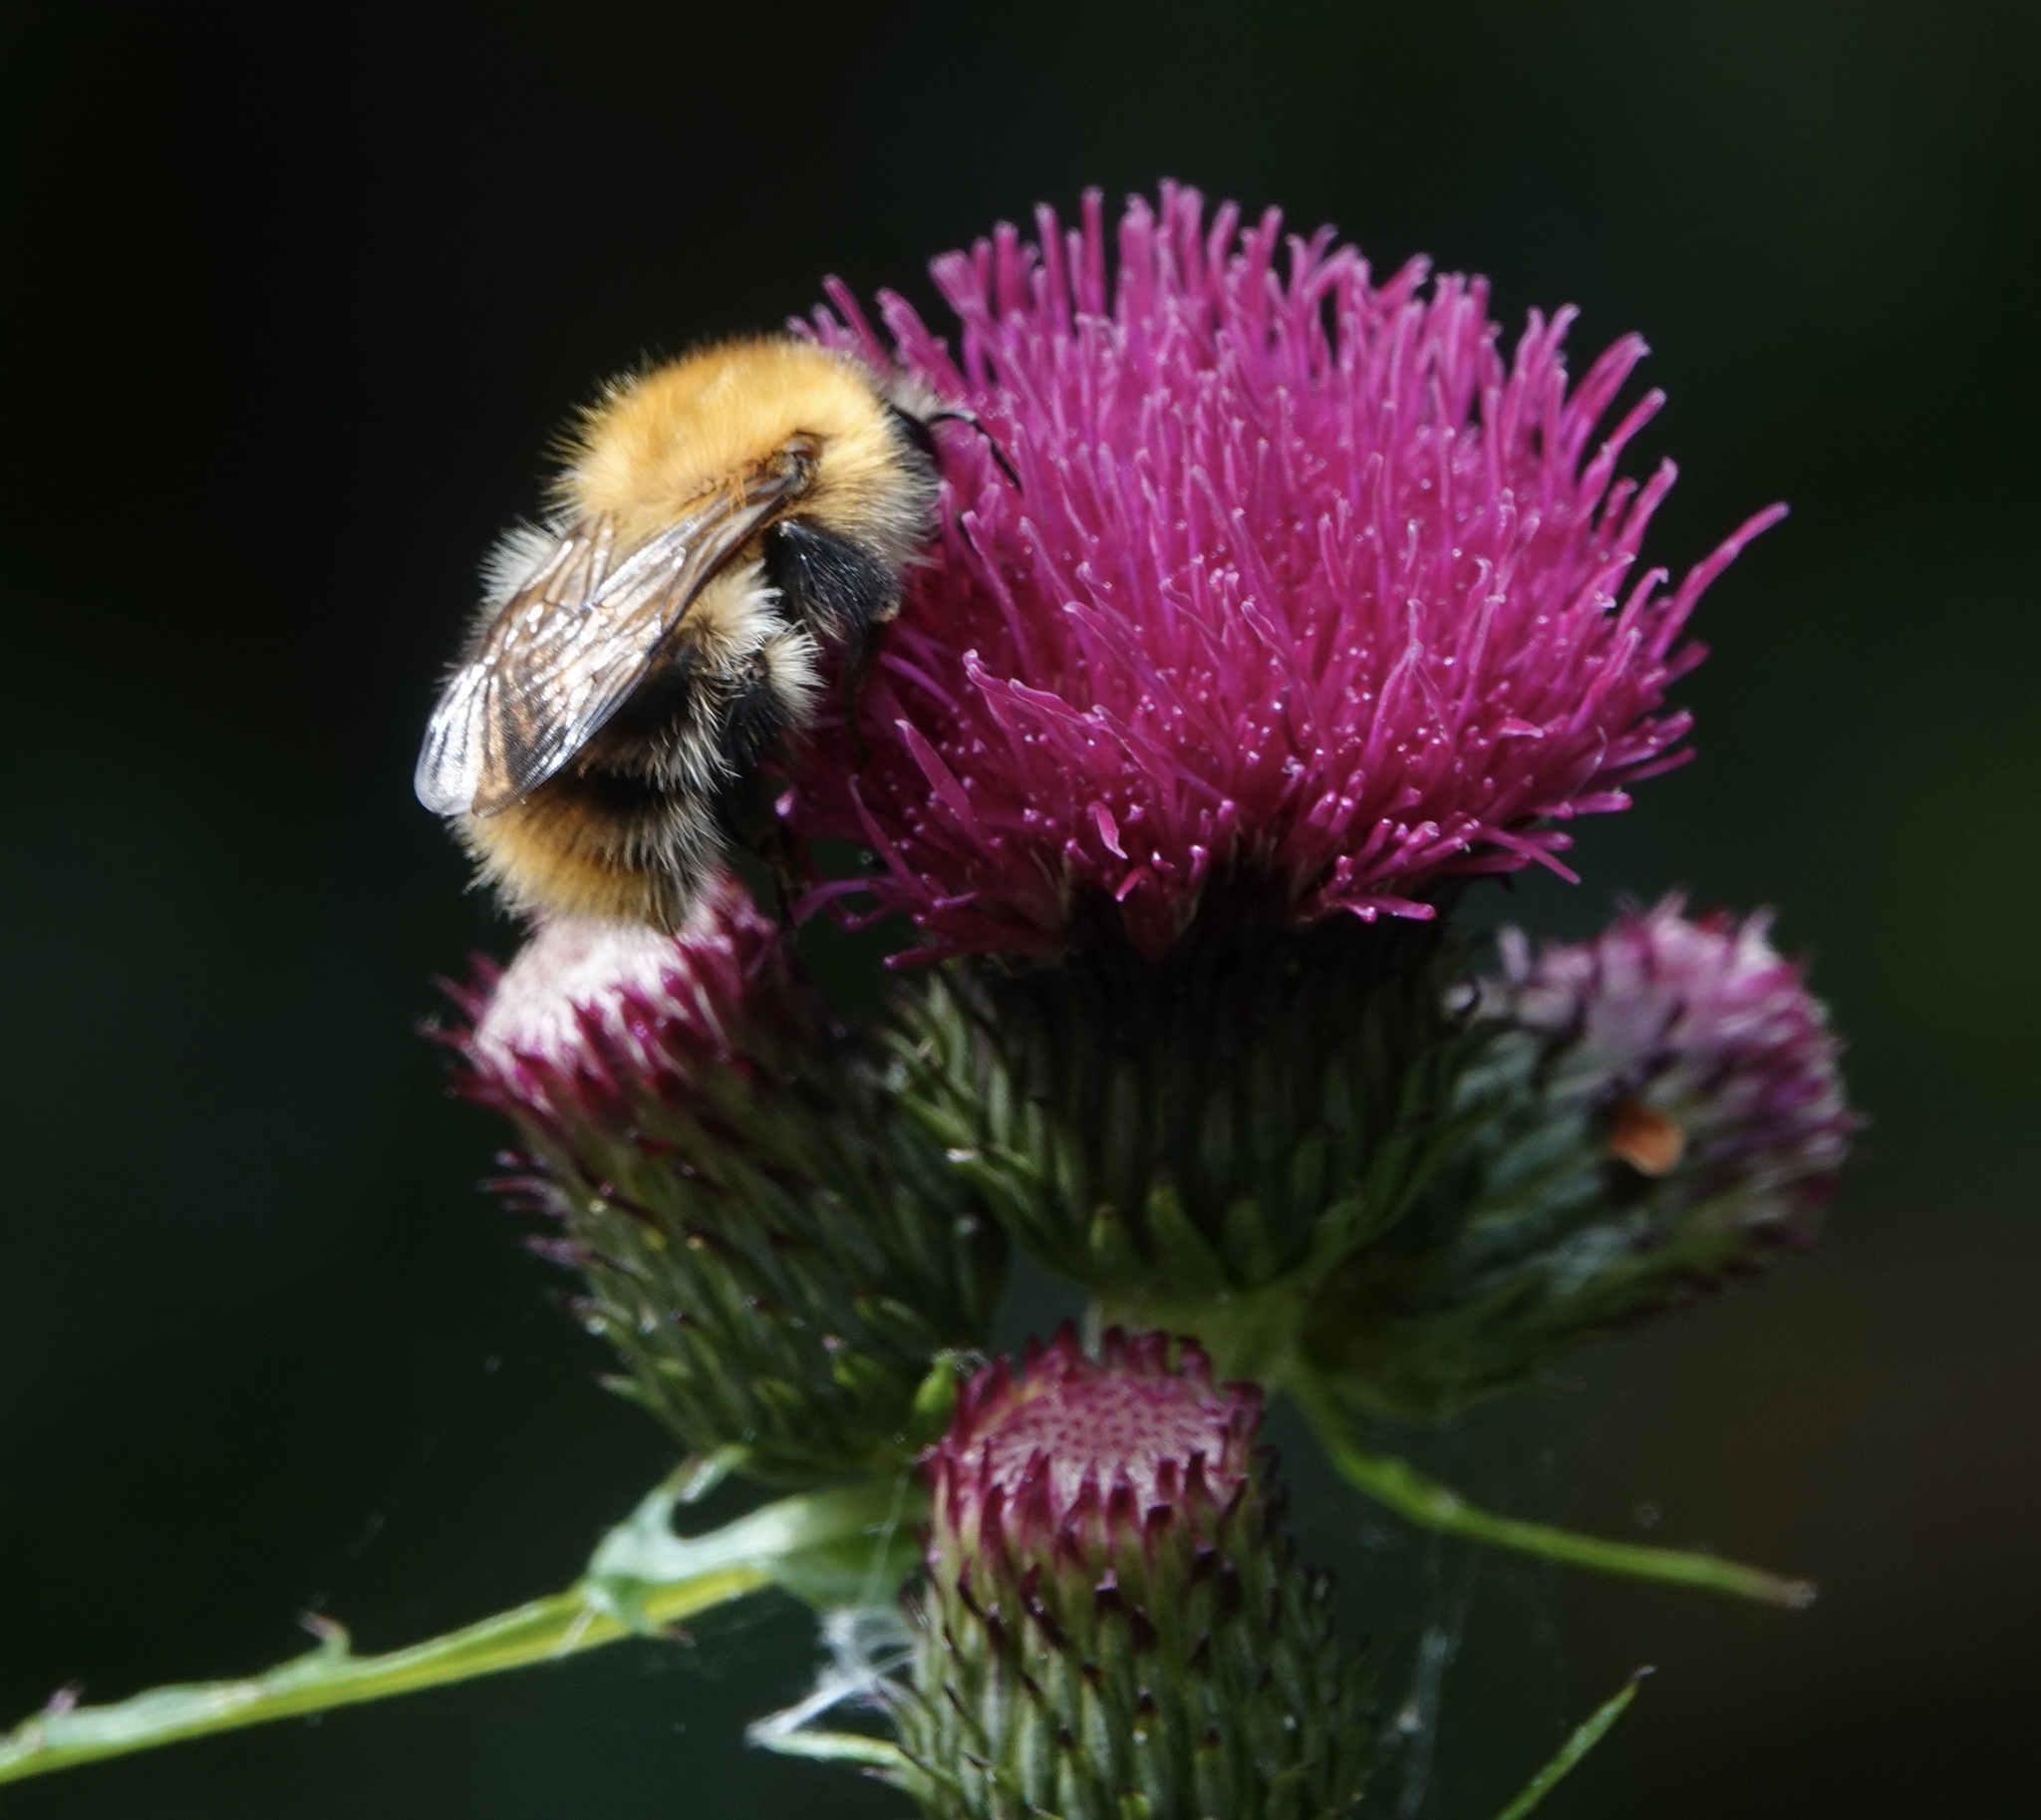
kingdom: Animalia
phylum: Arthropoda
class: Insecta
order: Hymenoptera
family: Apidae
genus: Bombus
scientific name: Bombus pascuorum
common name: Common carder bee
